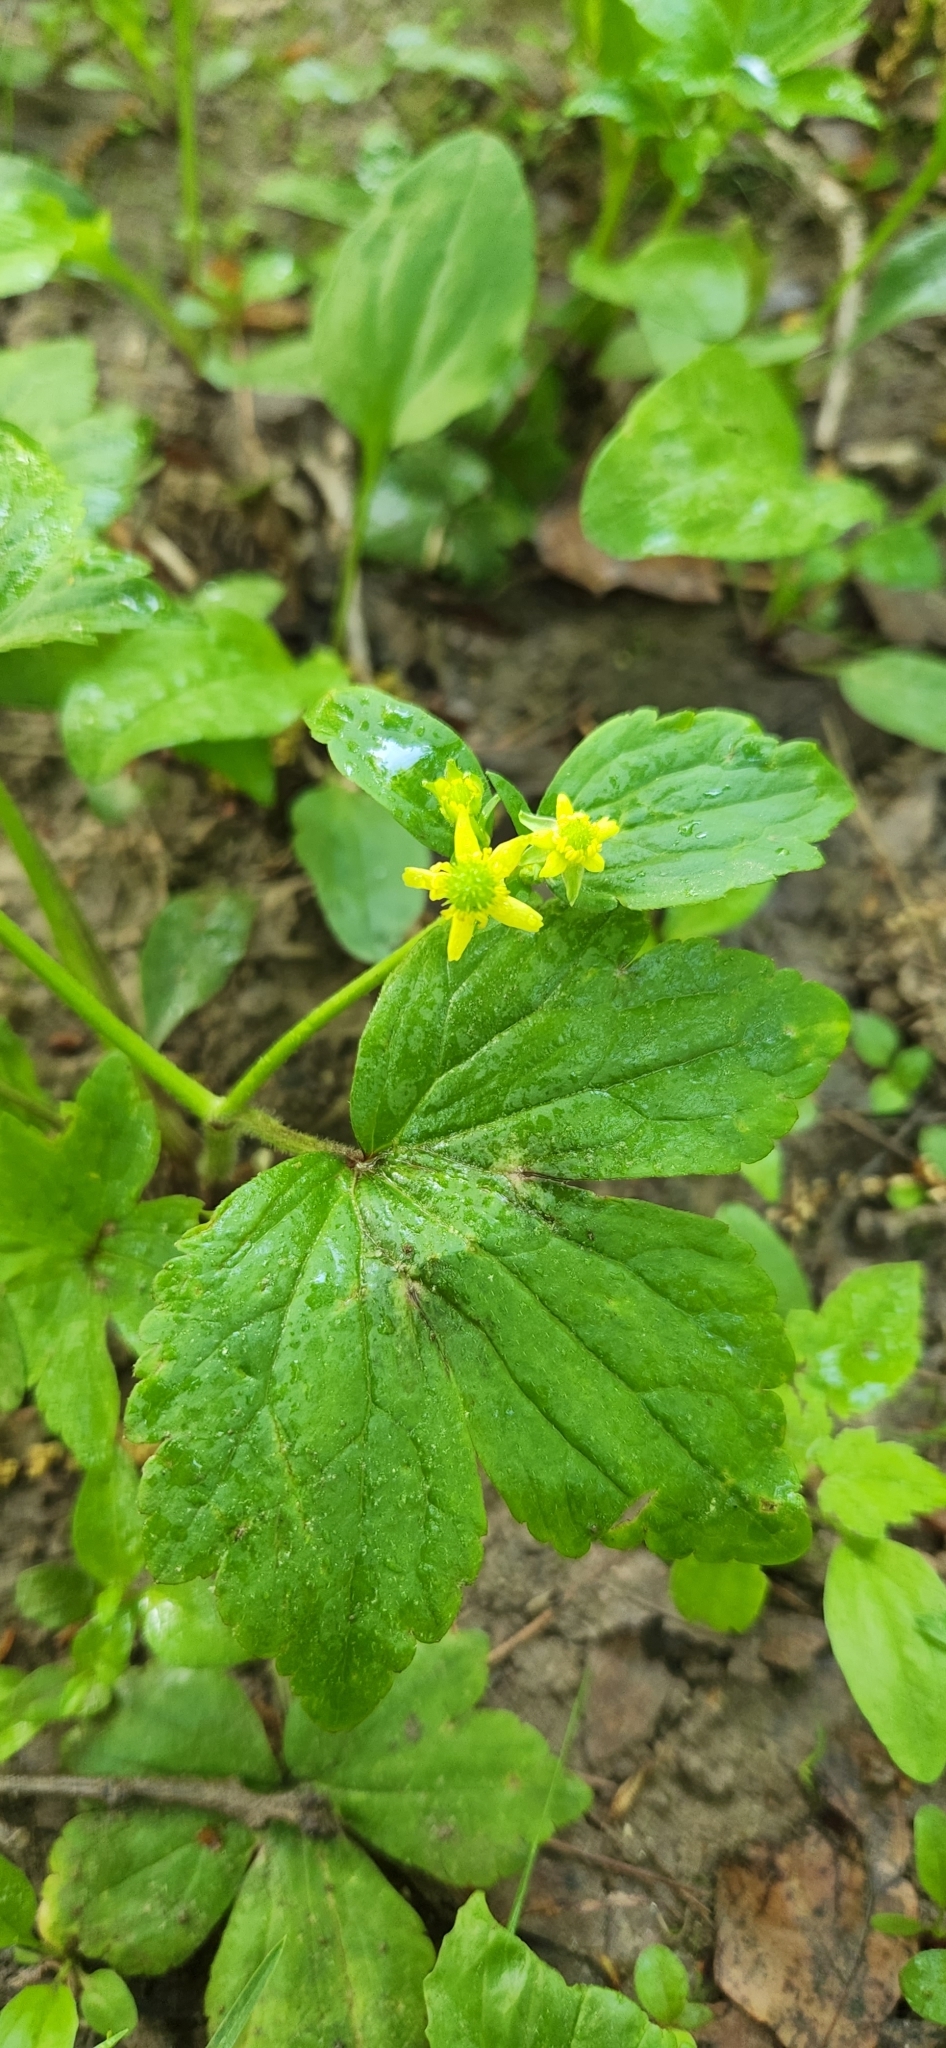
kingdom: Plantae
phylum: Tracheophyta
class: Magnoliopsida
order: Ranunculales
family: Ranunculaceae
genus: Ranunculus
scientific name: Ranunculus recurvatus
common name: Blisterwort
